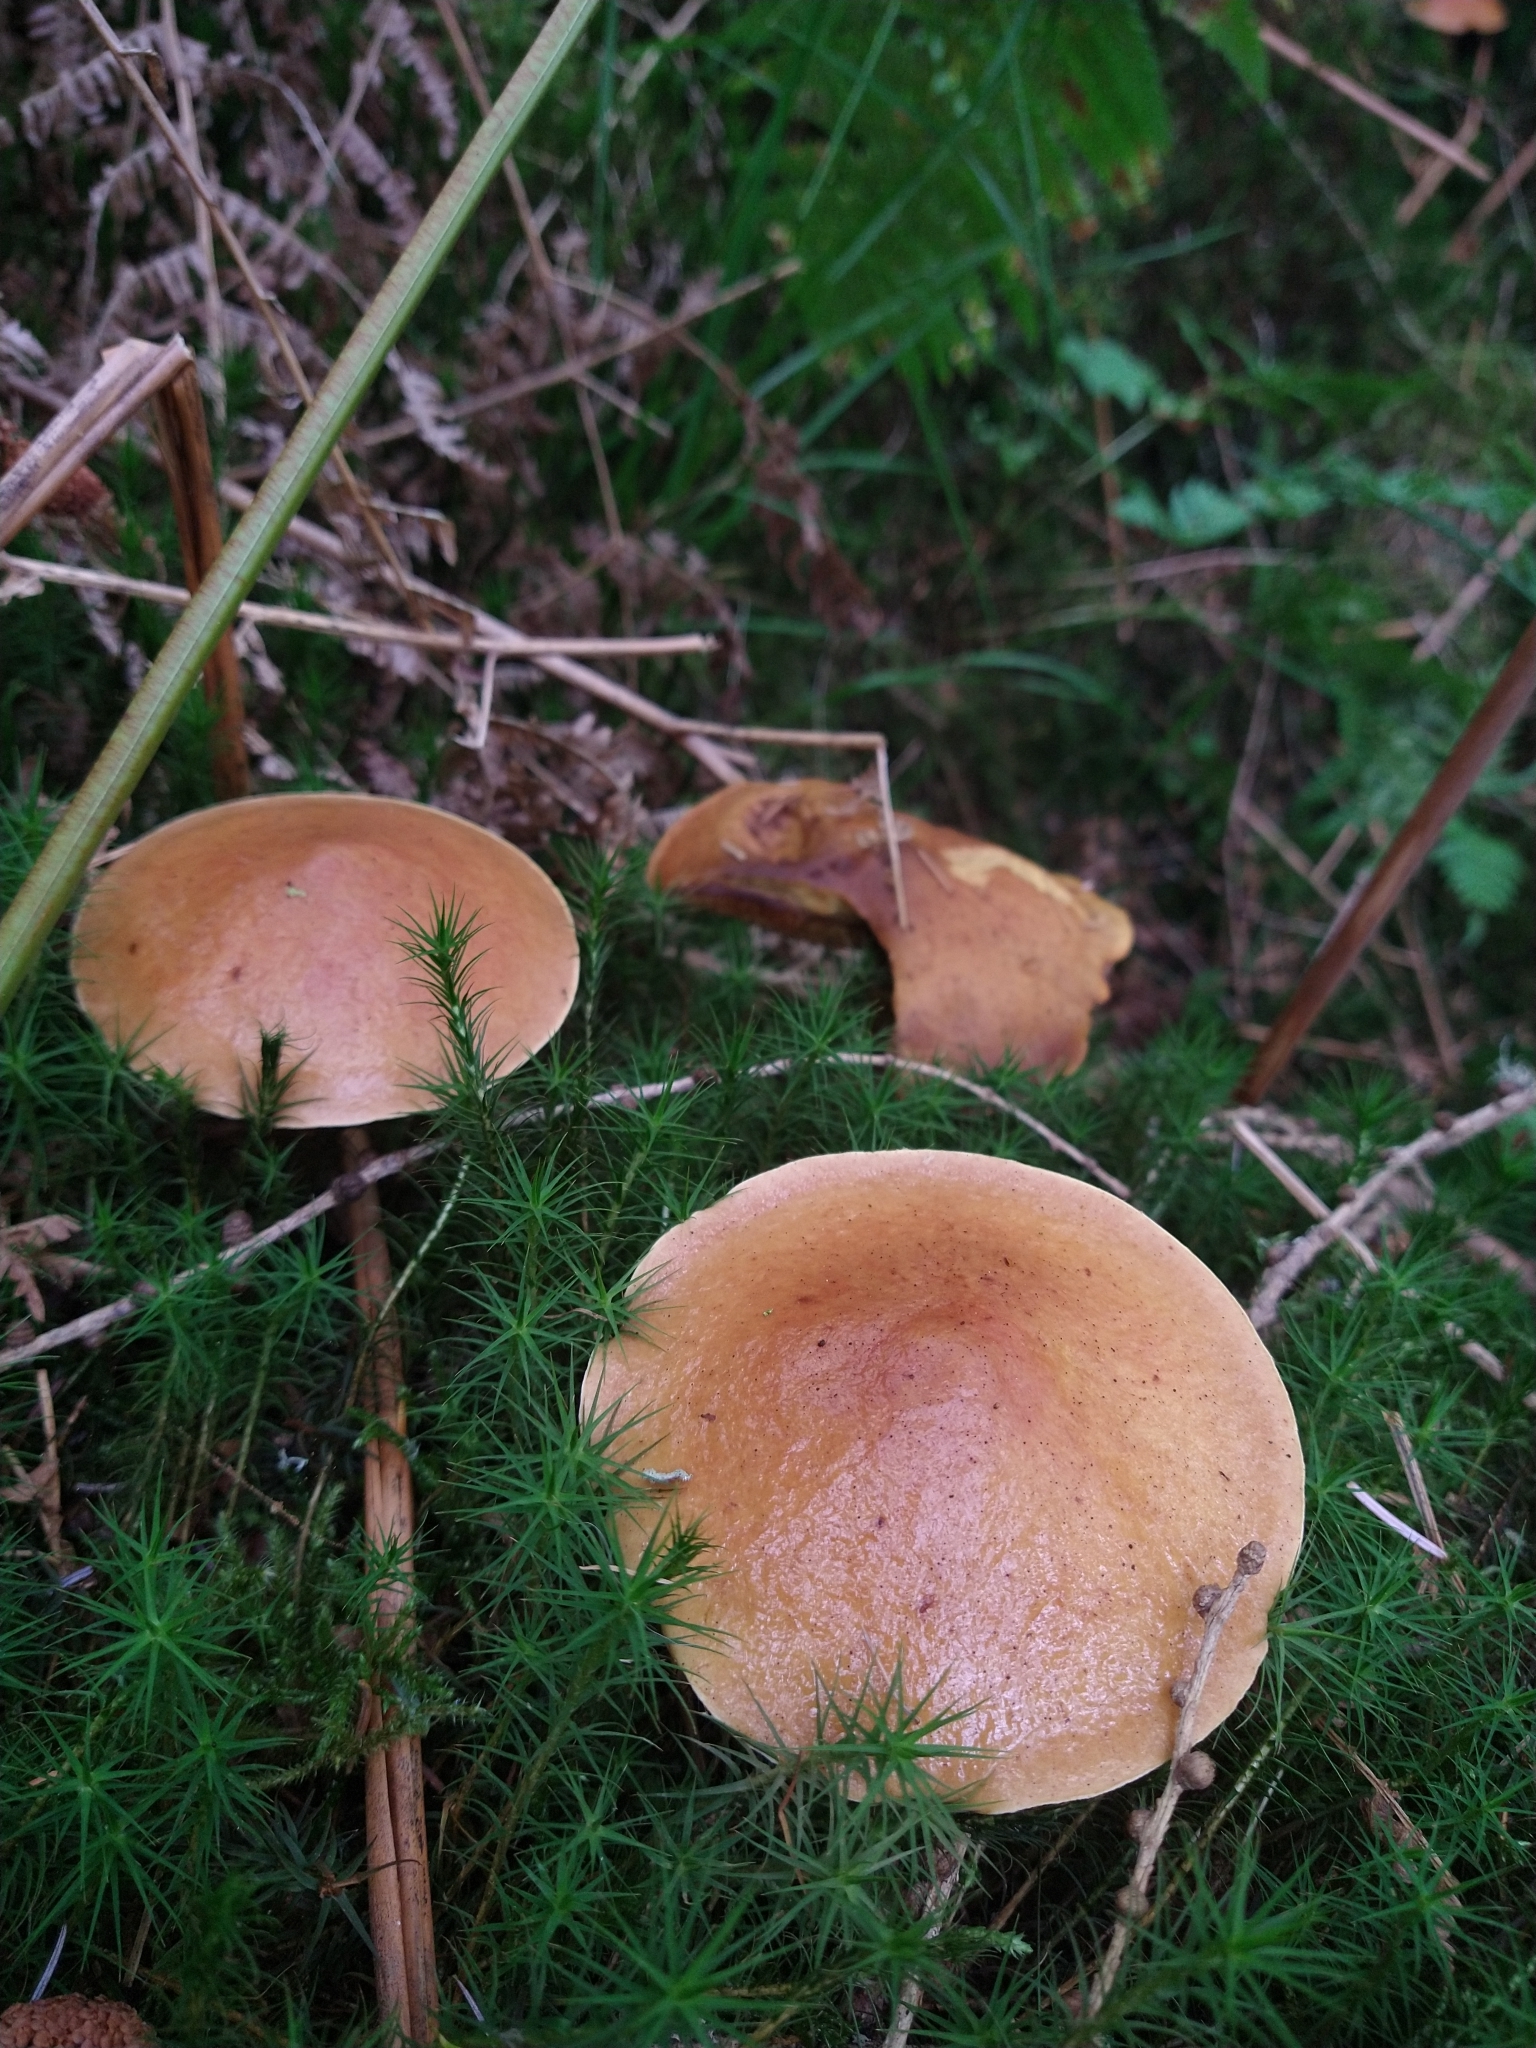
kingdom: Fungi
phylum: Basidiomycota
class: Agaricomycetes
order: Boletales
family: Suillaceae
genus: Suillus
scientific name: Suillus grevillei
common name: Larch bolete
